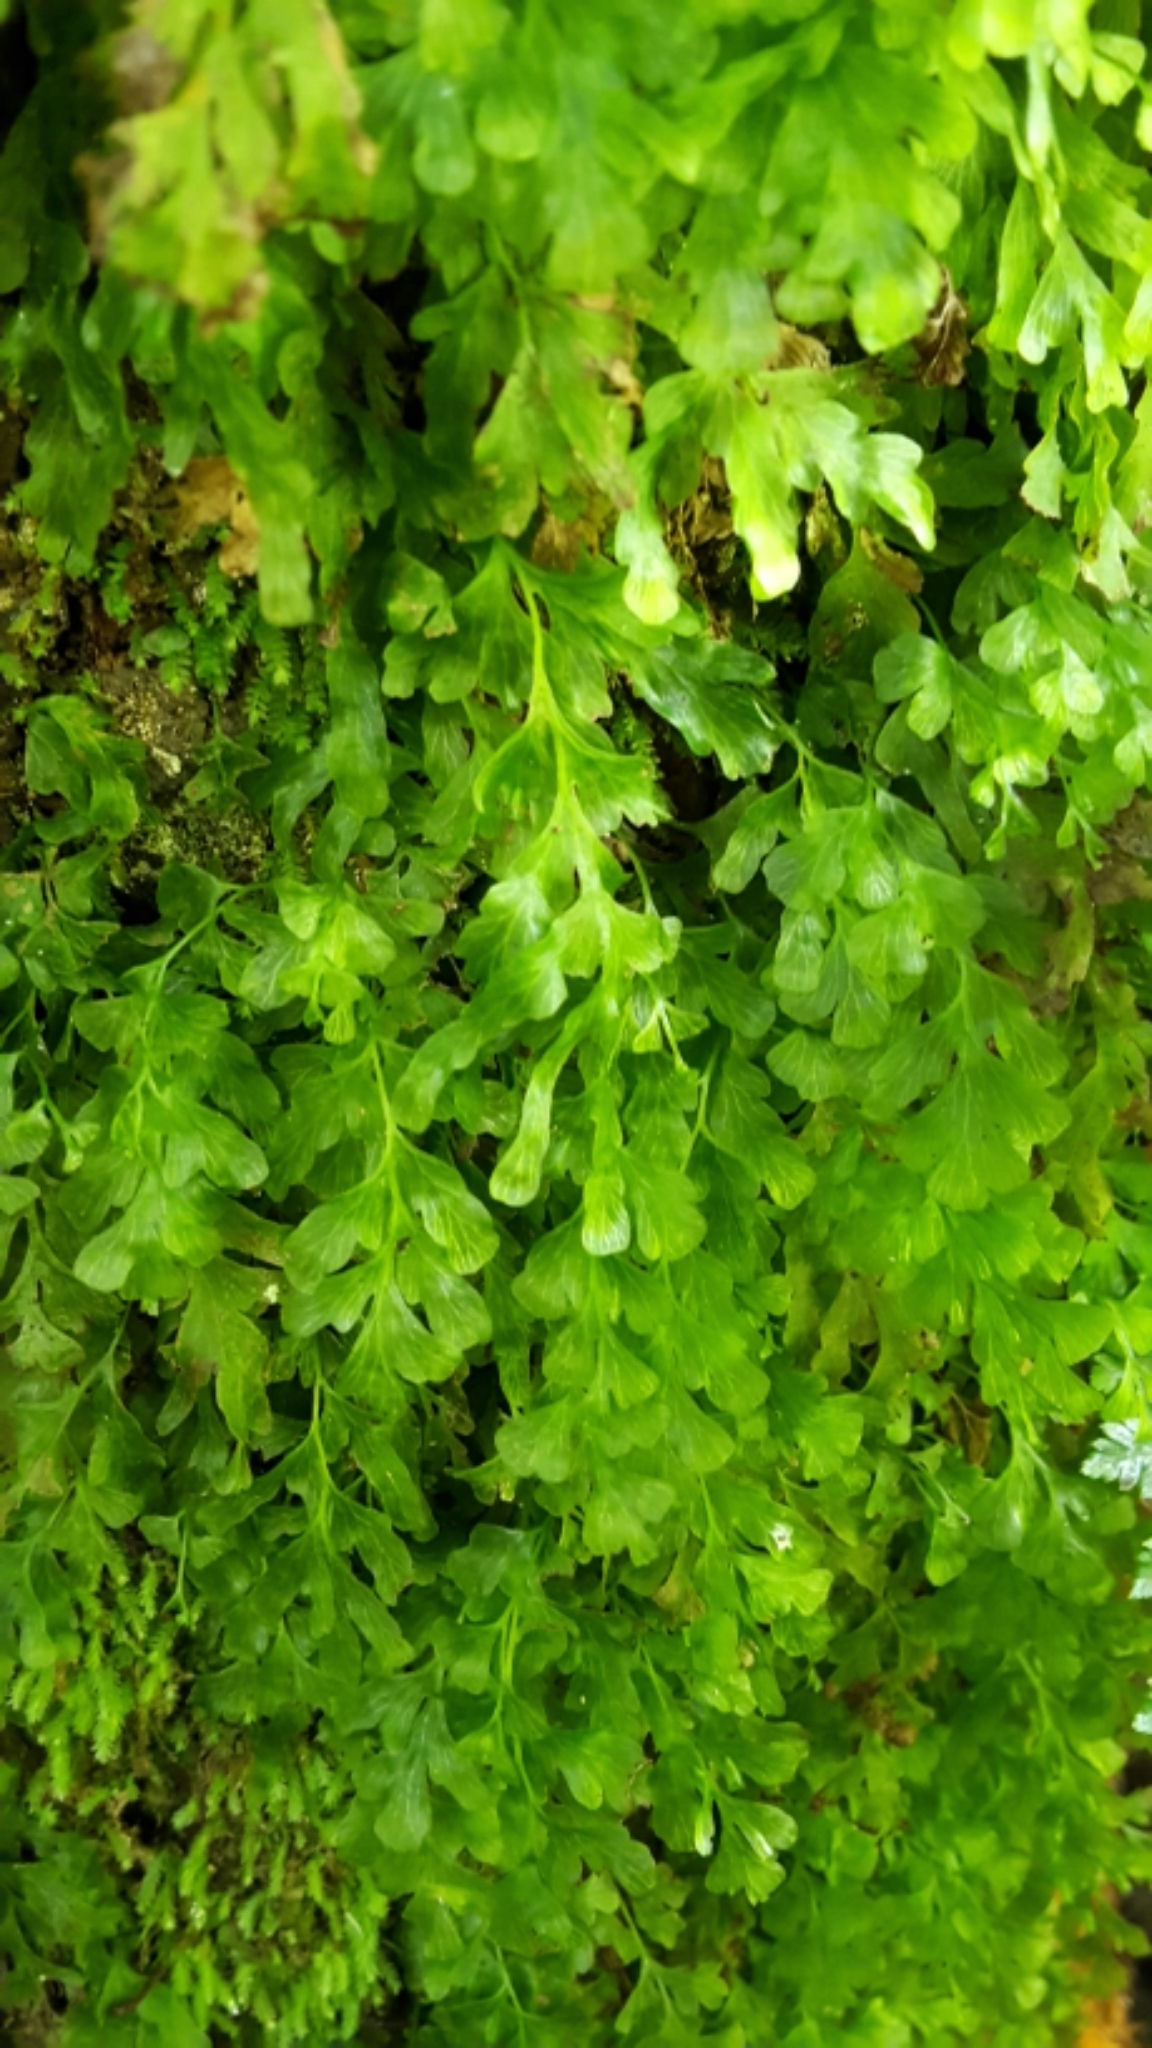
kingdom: Plantae
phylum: Tracheophyta
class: Polypodiopsida
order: Hymenophyllales
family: Hymenophyllaceae
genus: Polyphlebium
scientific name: Polyphlebium venosum
